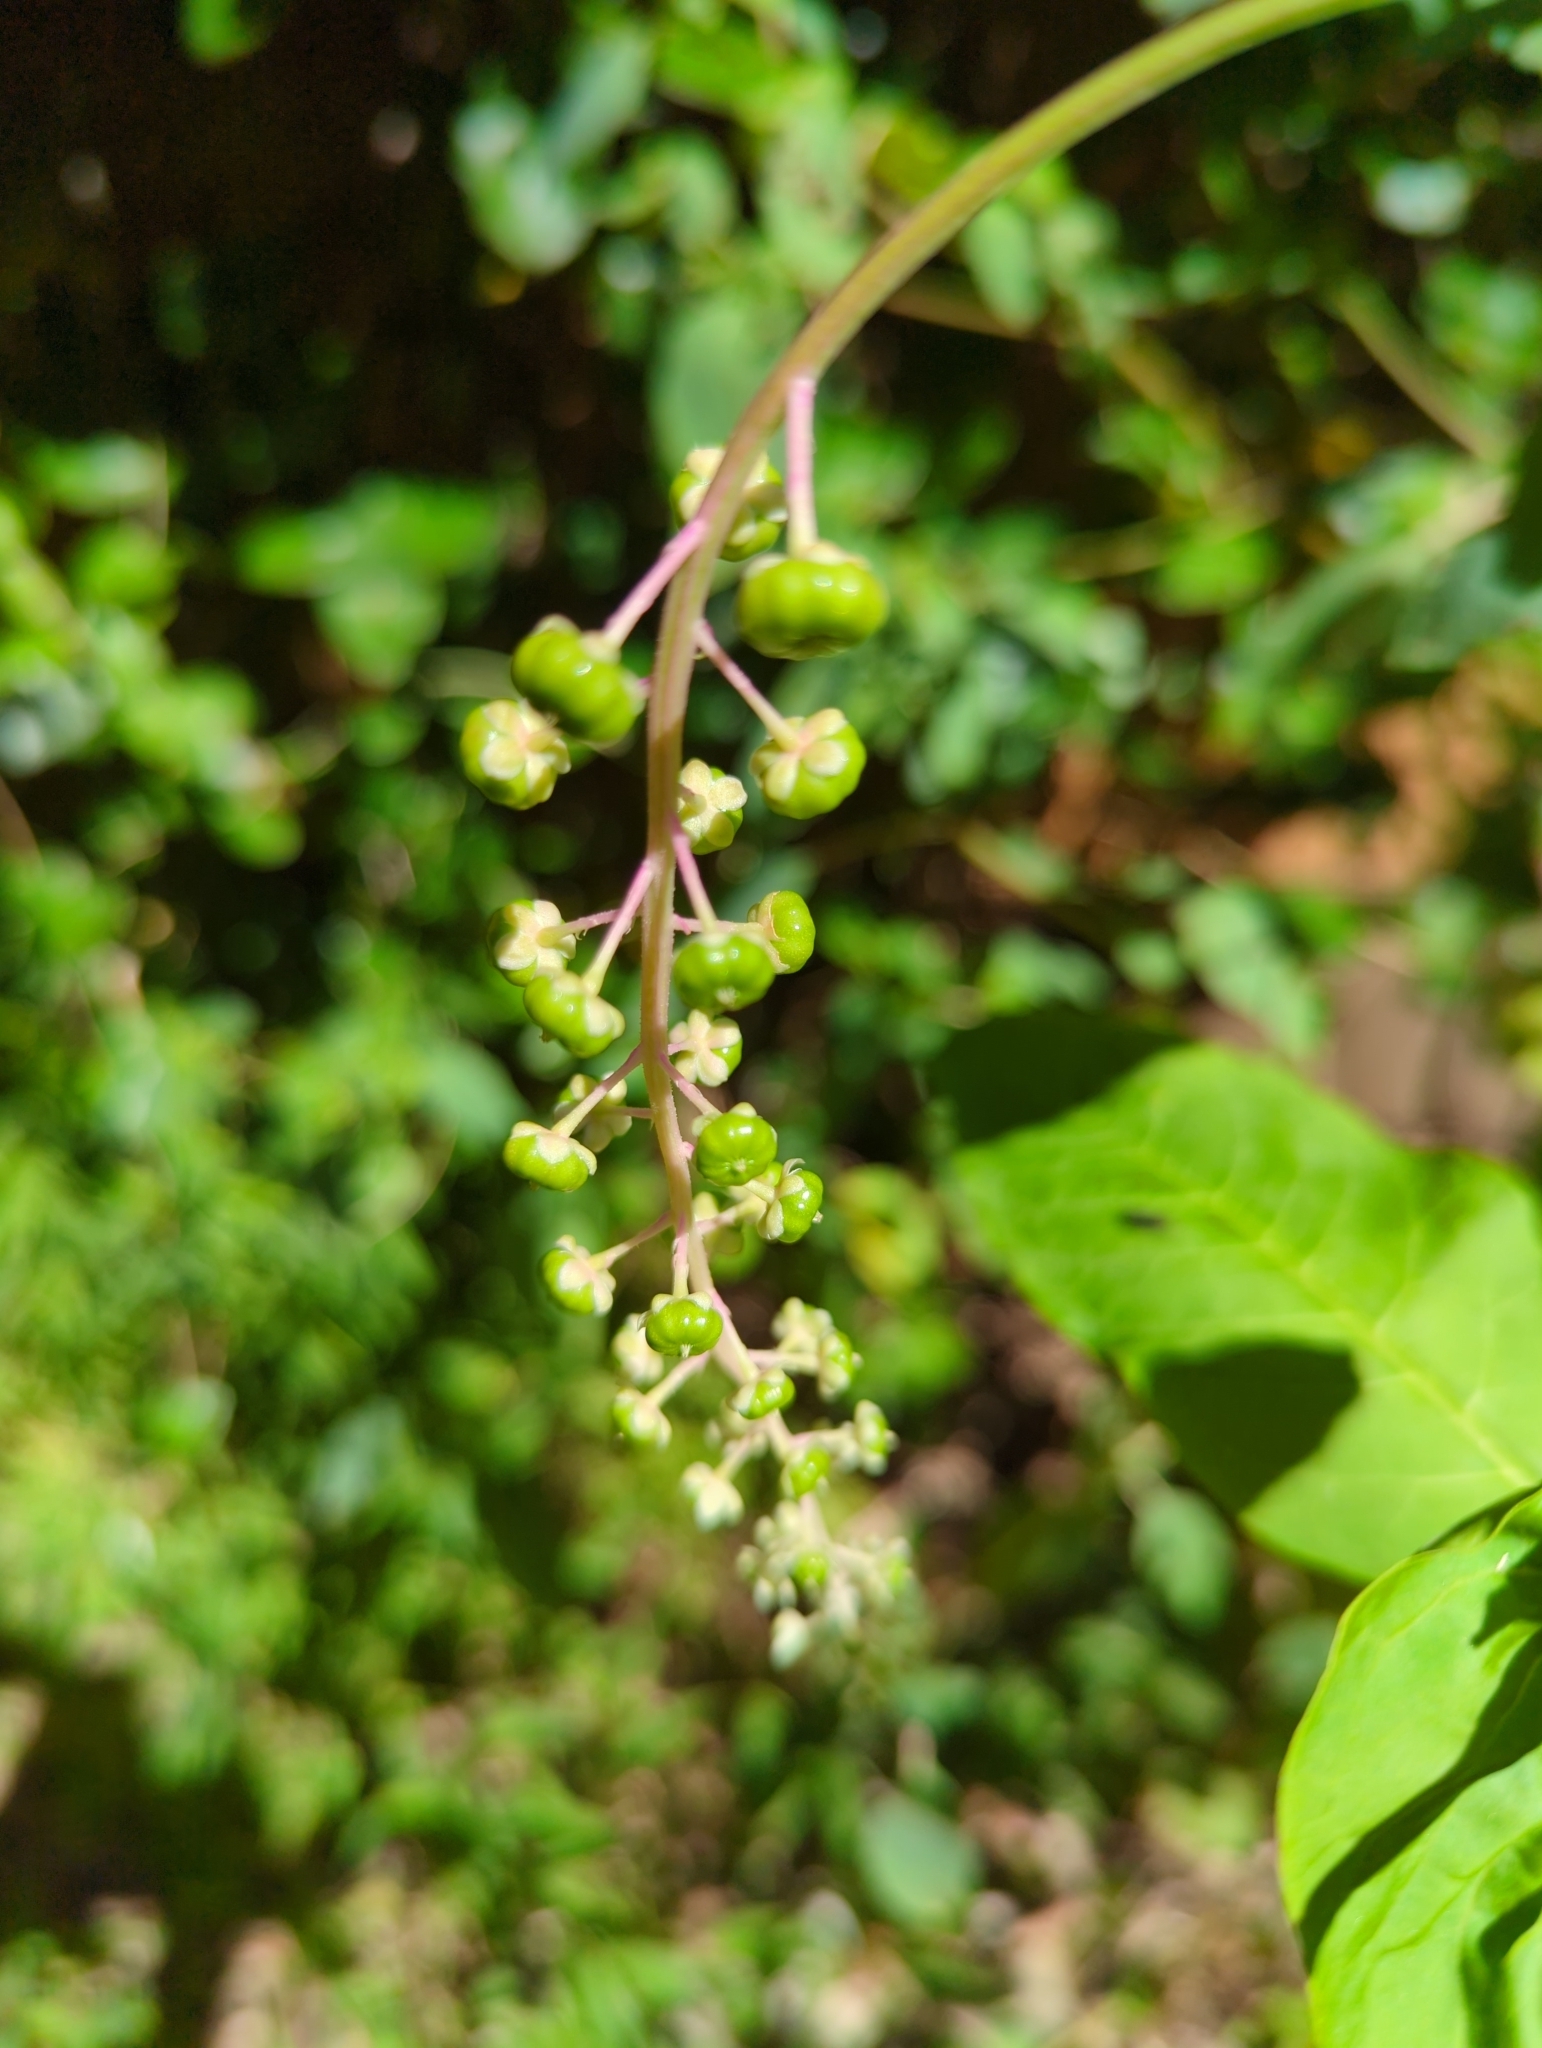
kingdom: Plantae
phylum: Tracheophyta
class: Magnoliopsida
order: Caryophyllales
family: Phytolaccaceae
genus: Phytolacca
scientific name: Phytolacca americana
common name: American pokeweed
